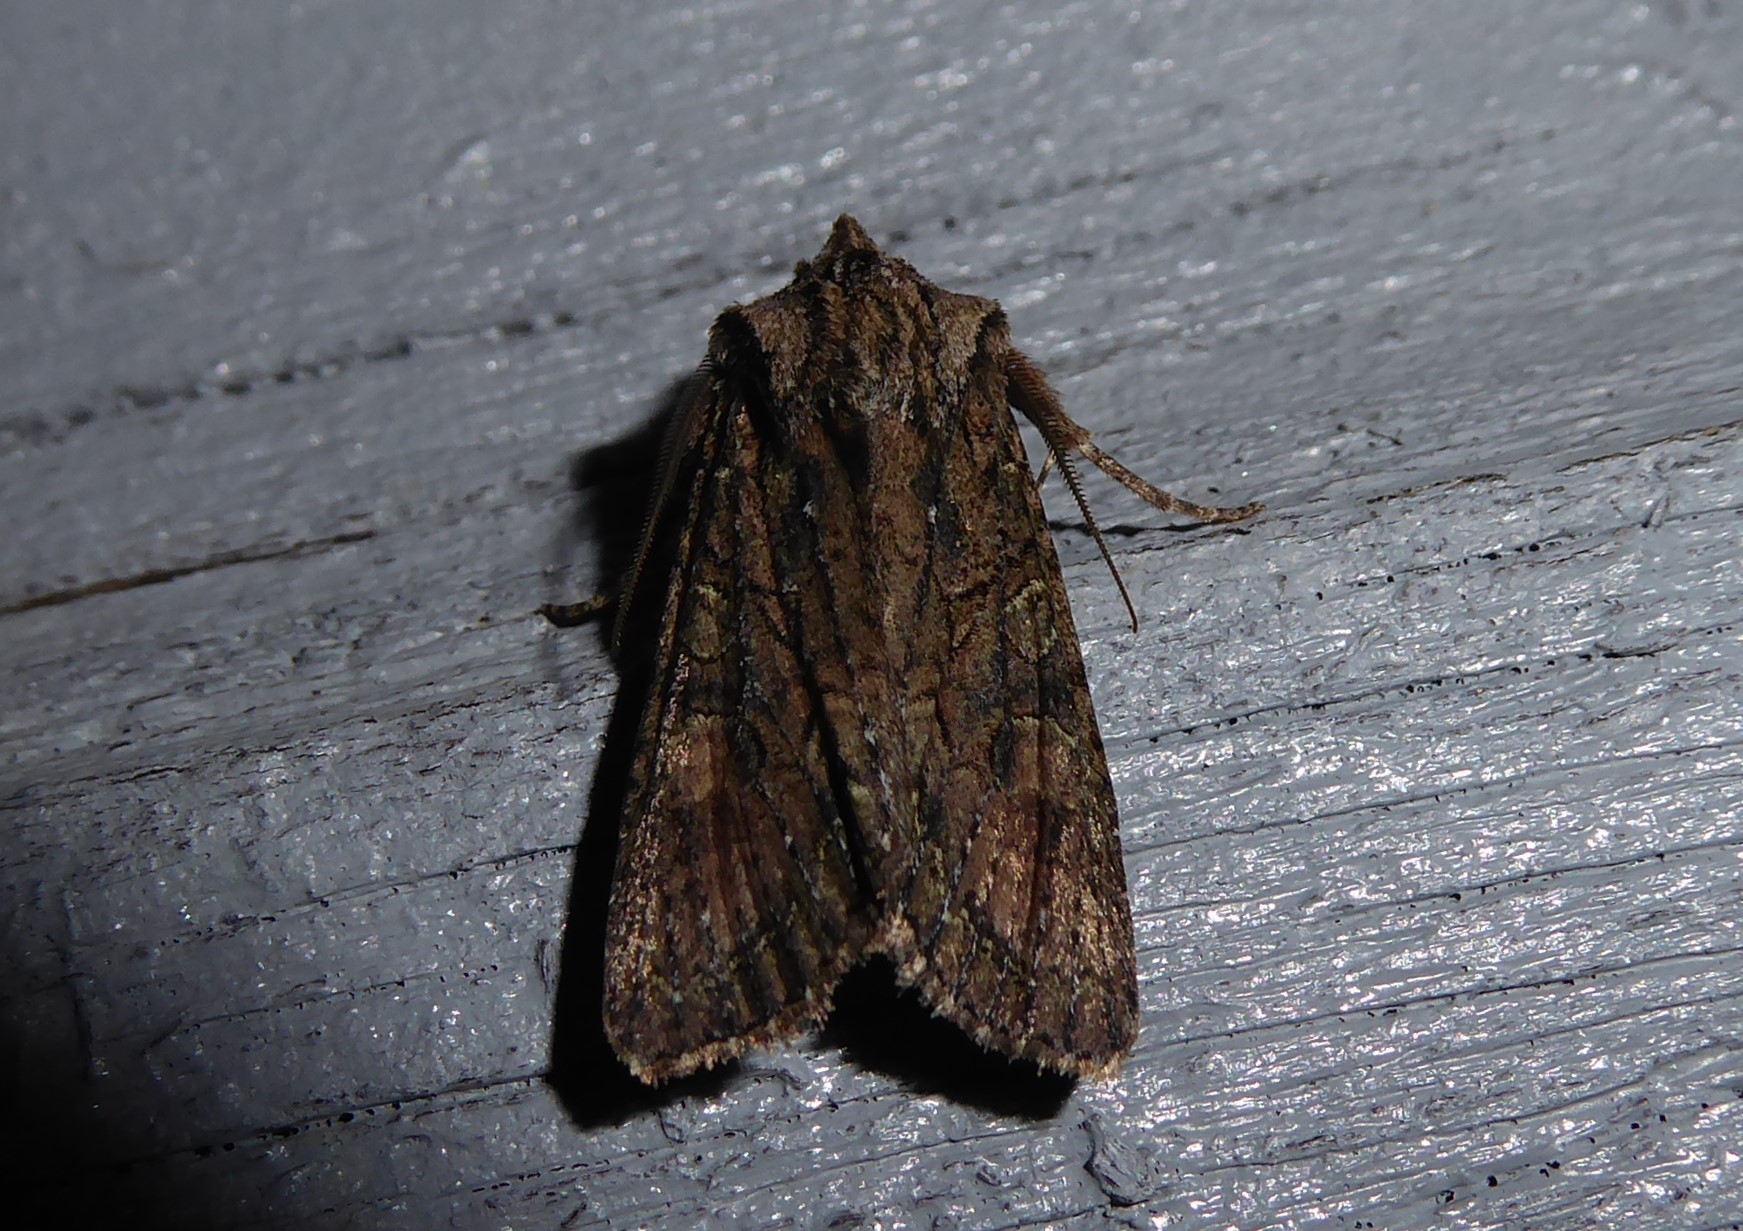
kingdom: Animalia
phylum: Arthropoda
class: Insecta
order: Lepidoptera
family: Noctuidae
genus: Ichneutica
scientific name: Ichneutica mutans
